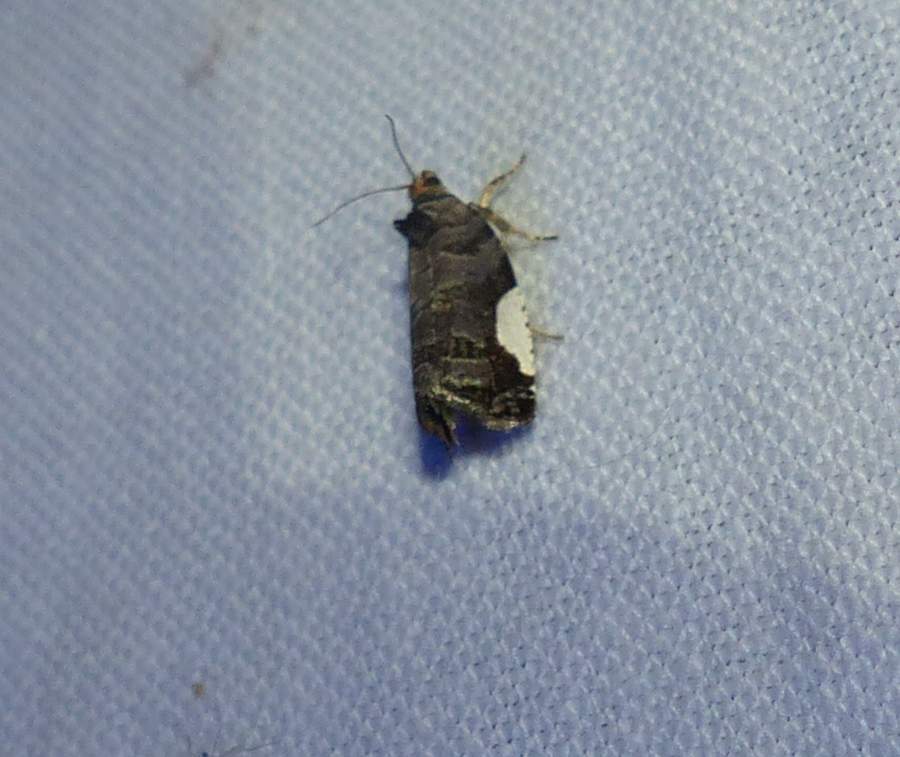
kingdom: Animalia
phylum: Arthropoda
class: Insecta
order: Lepidoptera
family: Tortricidae
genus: Hedya
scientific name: Hedya chionosema
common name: White-spotted hedya moth
